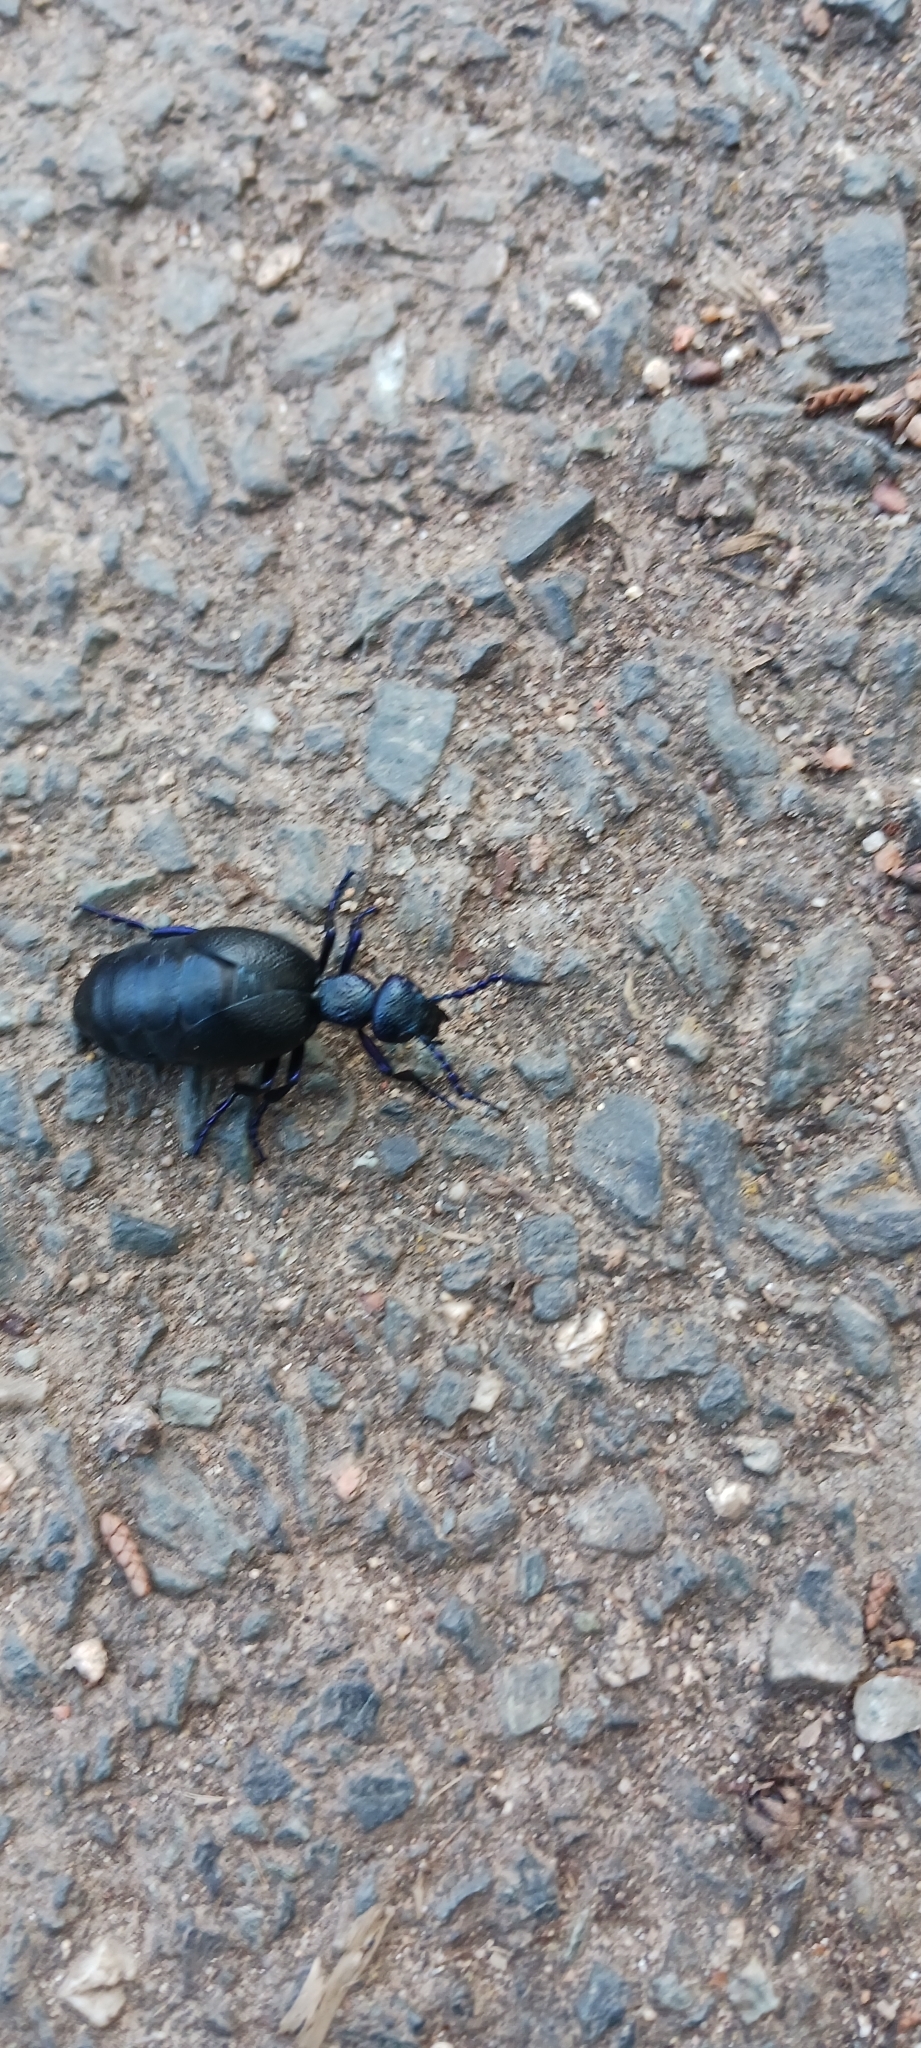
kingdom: Animalia
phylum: Arthropoda
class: Insecta
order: Coleoptera
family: Meloidae
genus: Meloe
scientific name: Meloe proscarabaeus
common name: Black oil-beetle
